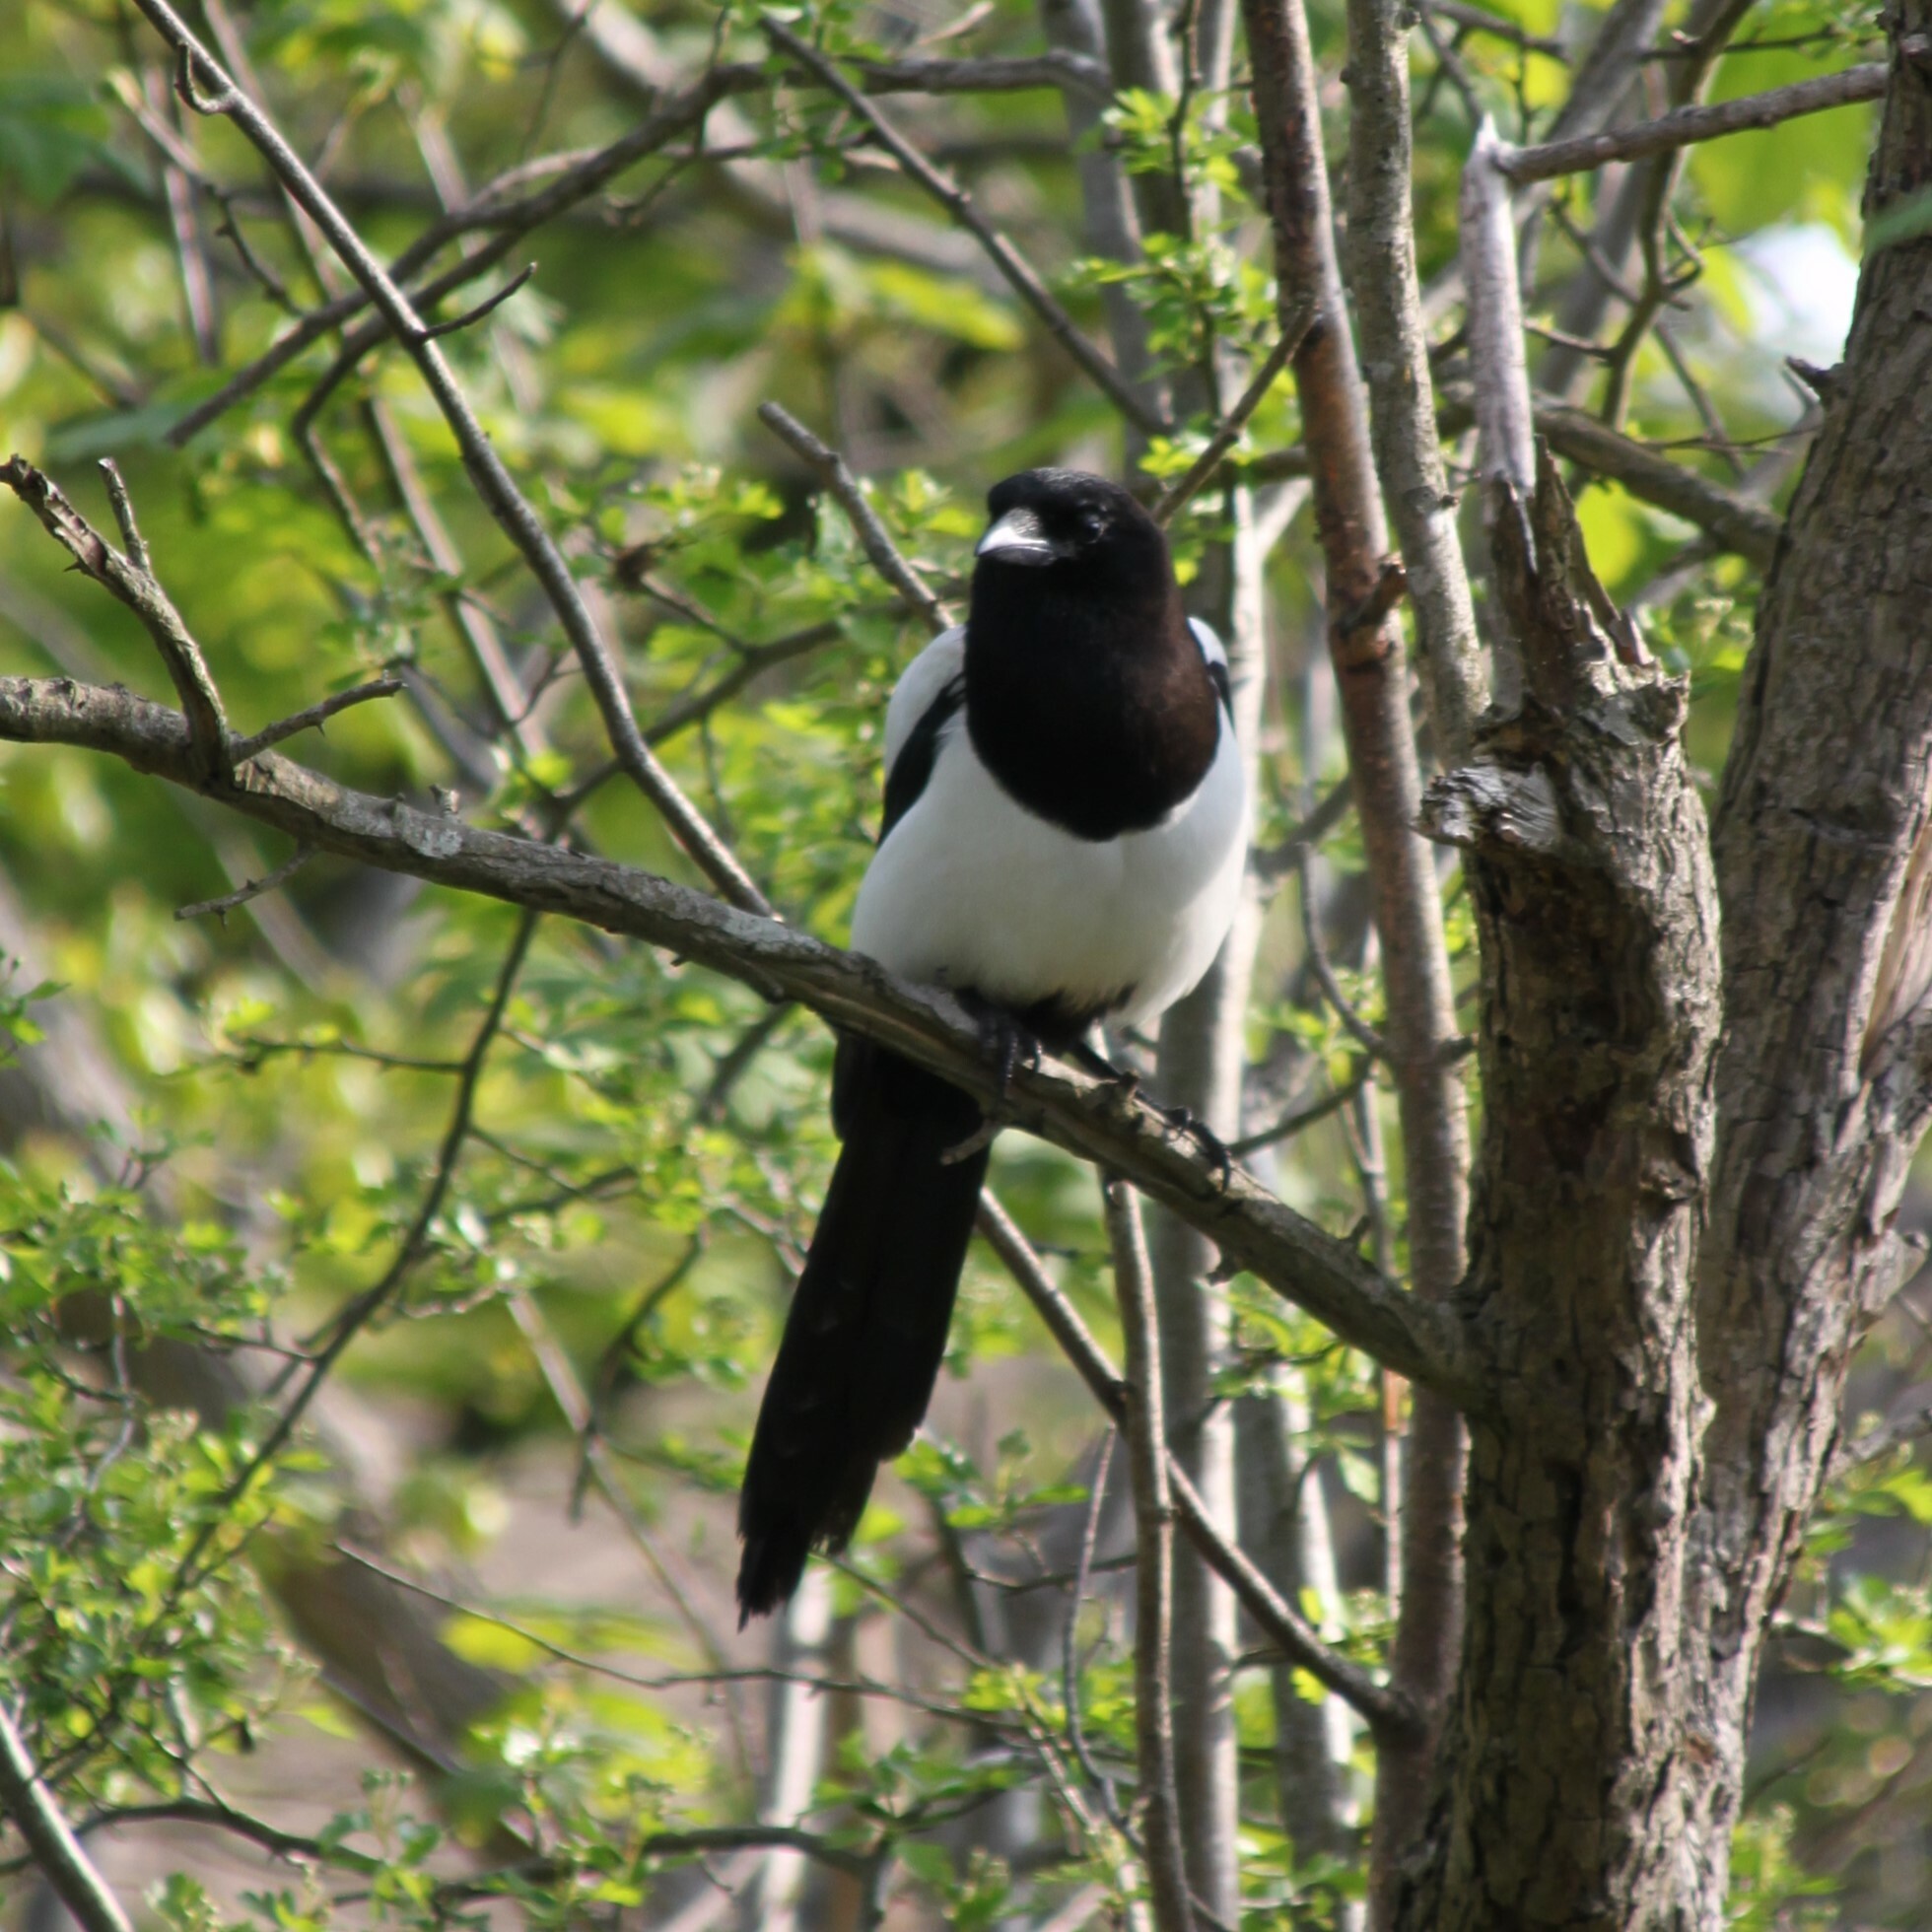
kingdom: Animalia
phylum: Chordata
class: Aves
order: Passeriformes
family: Corvidae
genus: Pica
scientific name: Pica pica
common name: Eurasian magpie
